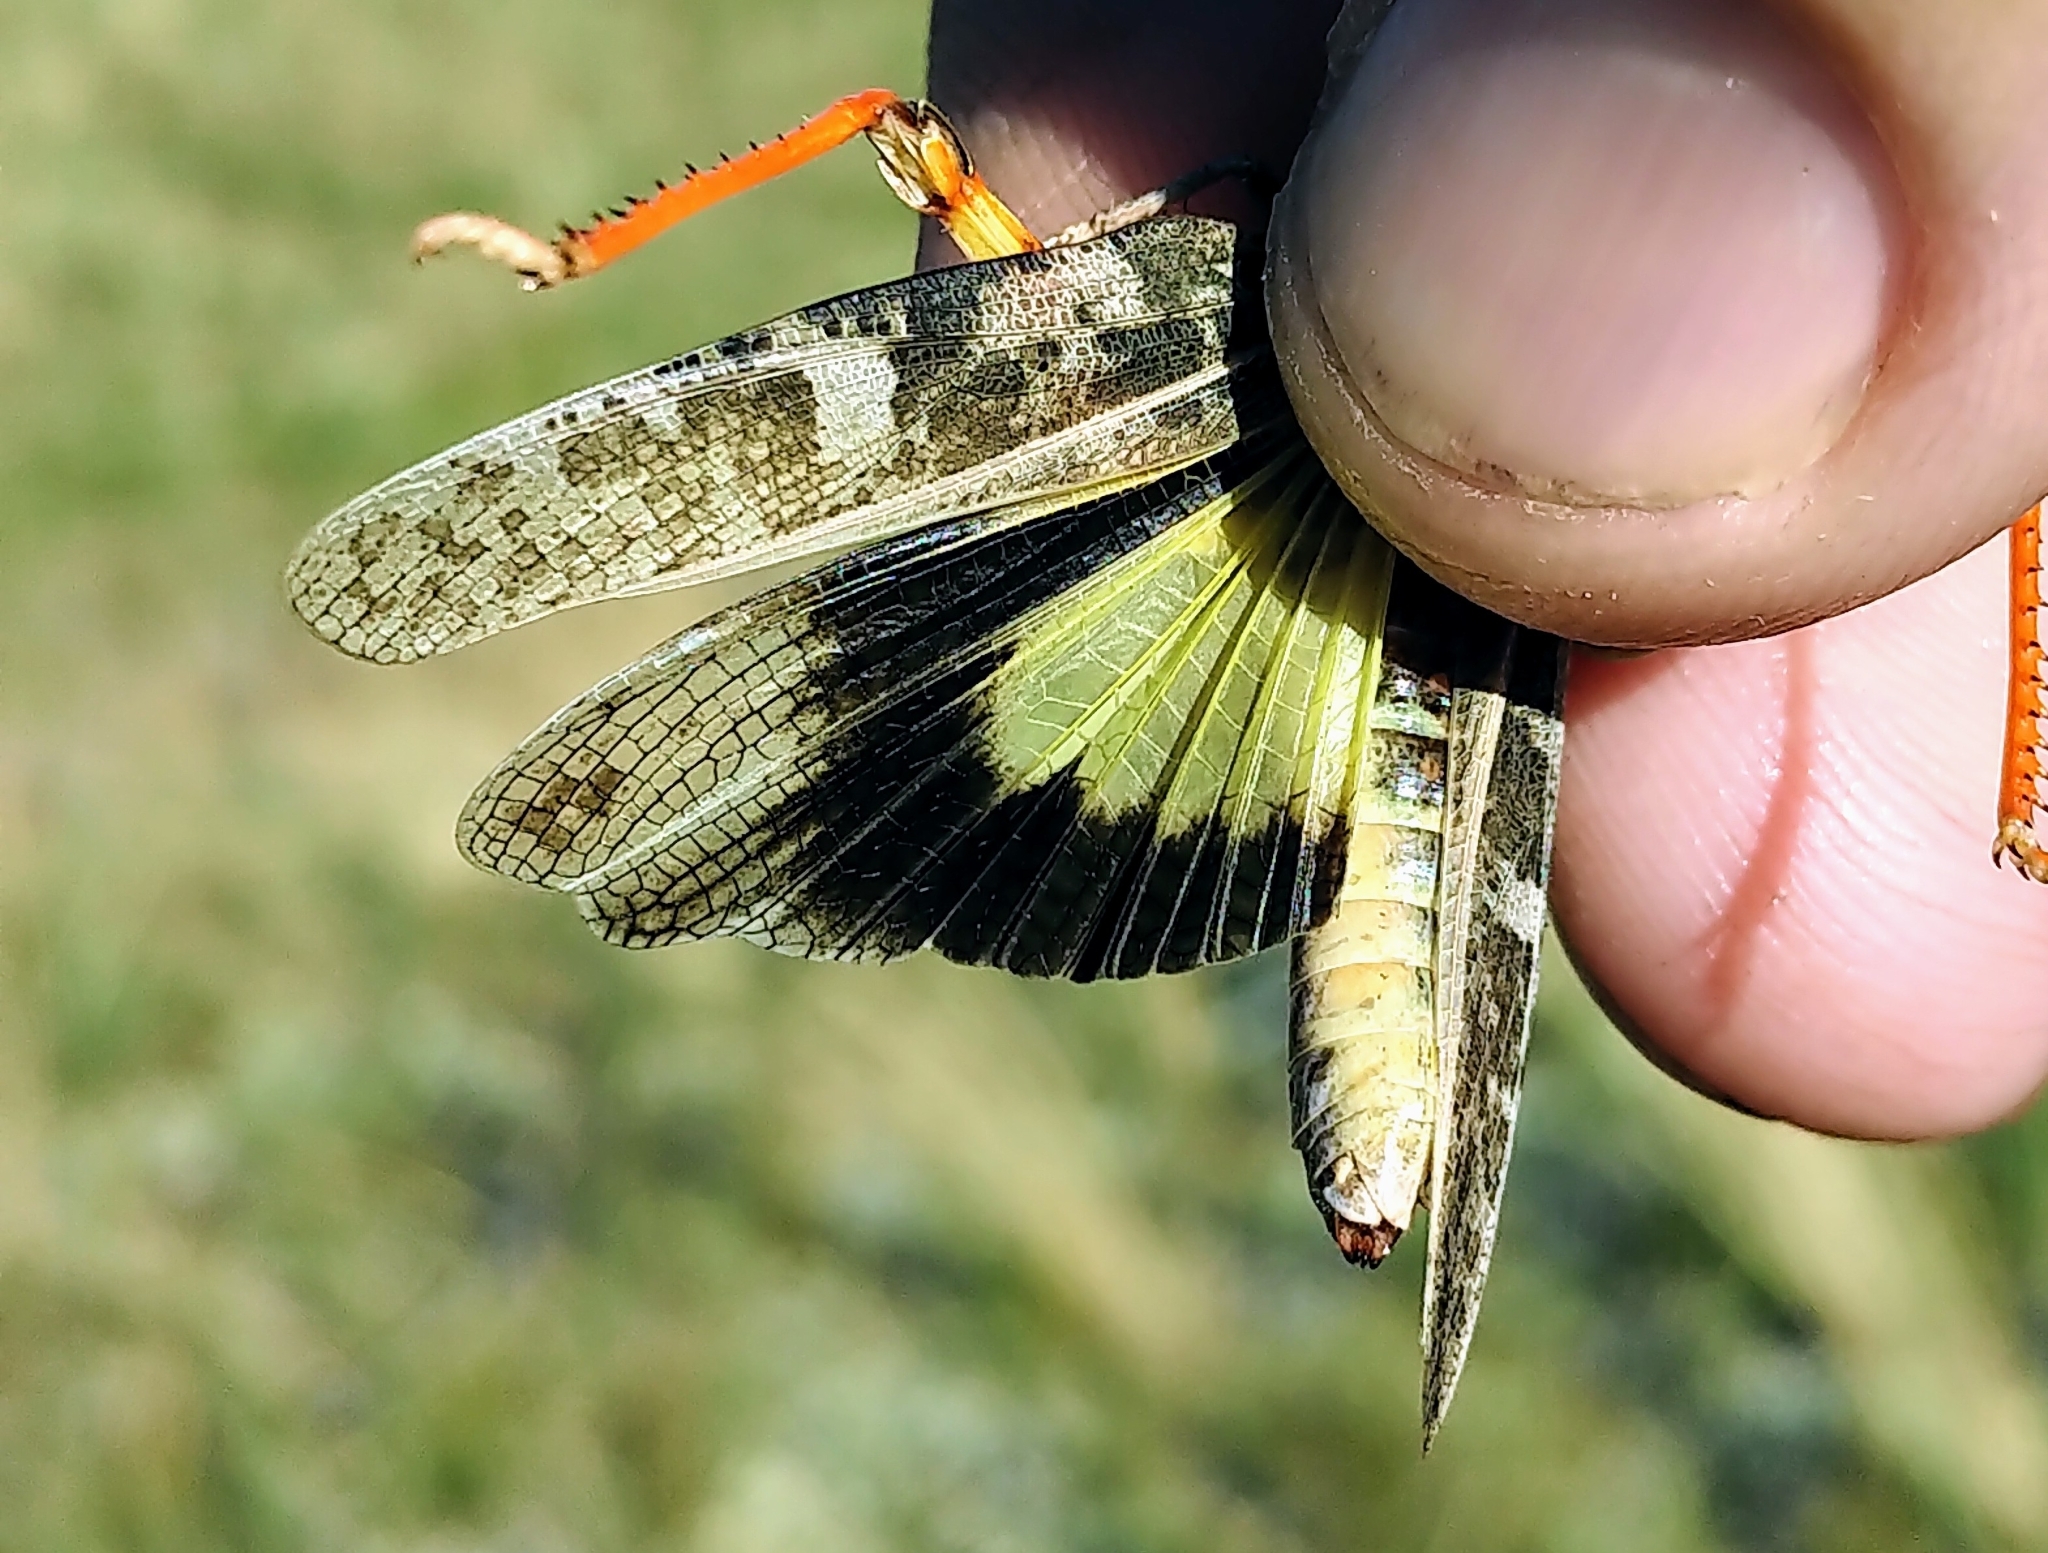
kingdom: Animalia
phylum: Arthropoda
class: Insecta
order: Orthoptera
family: Acrididae
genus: Cratypedes
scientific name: Cratypedes neglectus
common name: Pronotal range grasshopper
